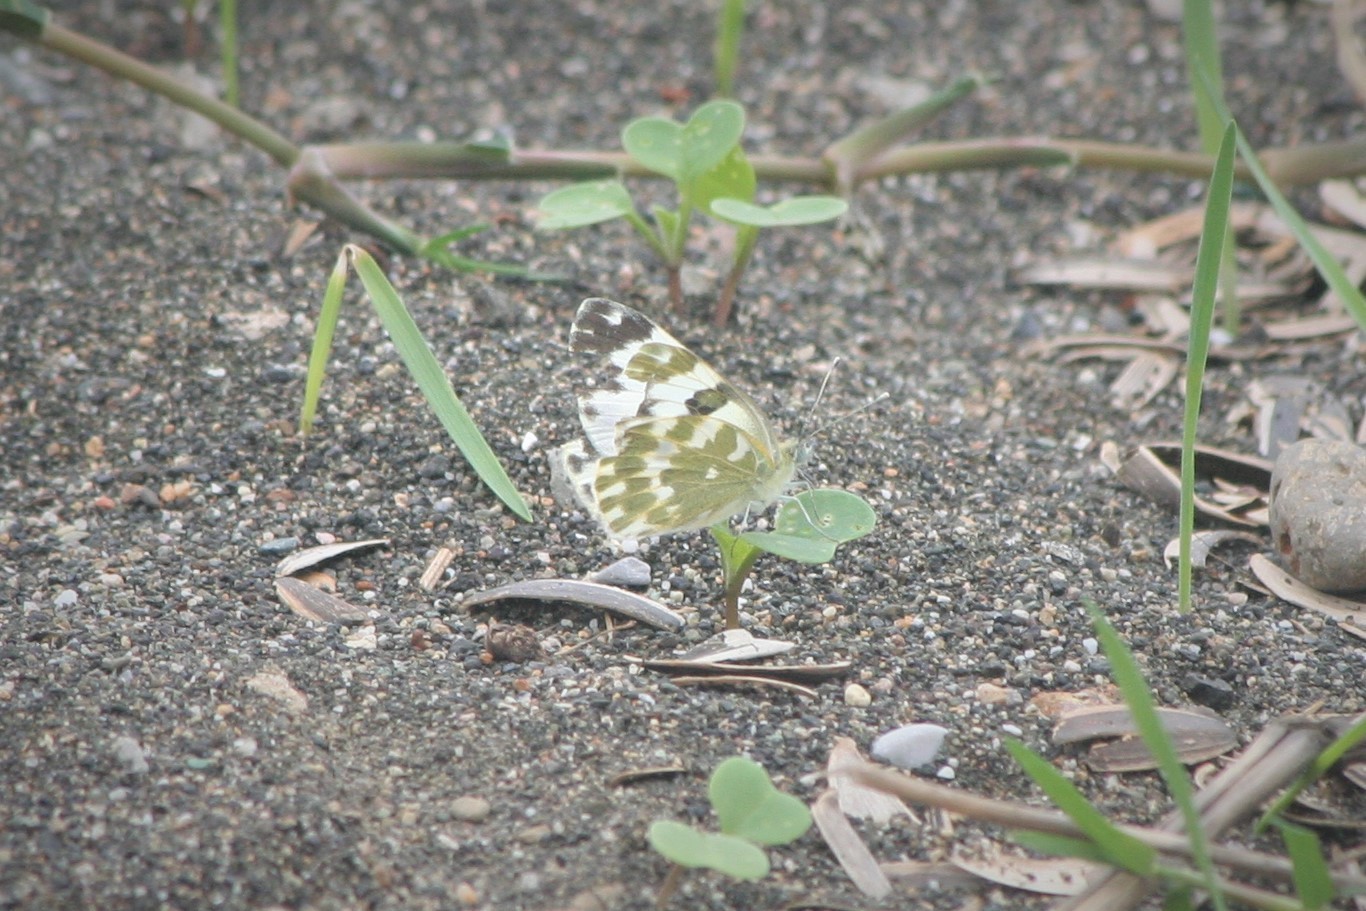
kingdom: Animalia
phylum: Arthropoda
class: Insecta
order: Lepidoptera
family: Pieridae
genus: Pontia
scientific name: Pontia edusa
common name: Eastern bath white
